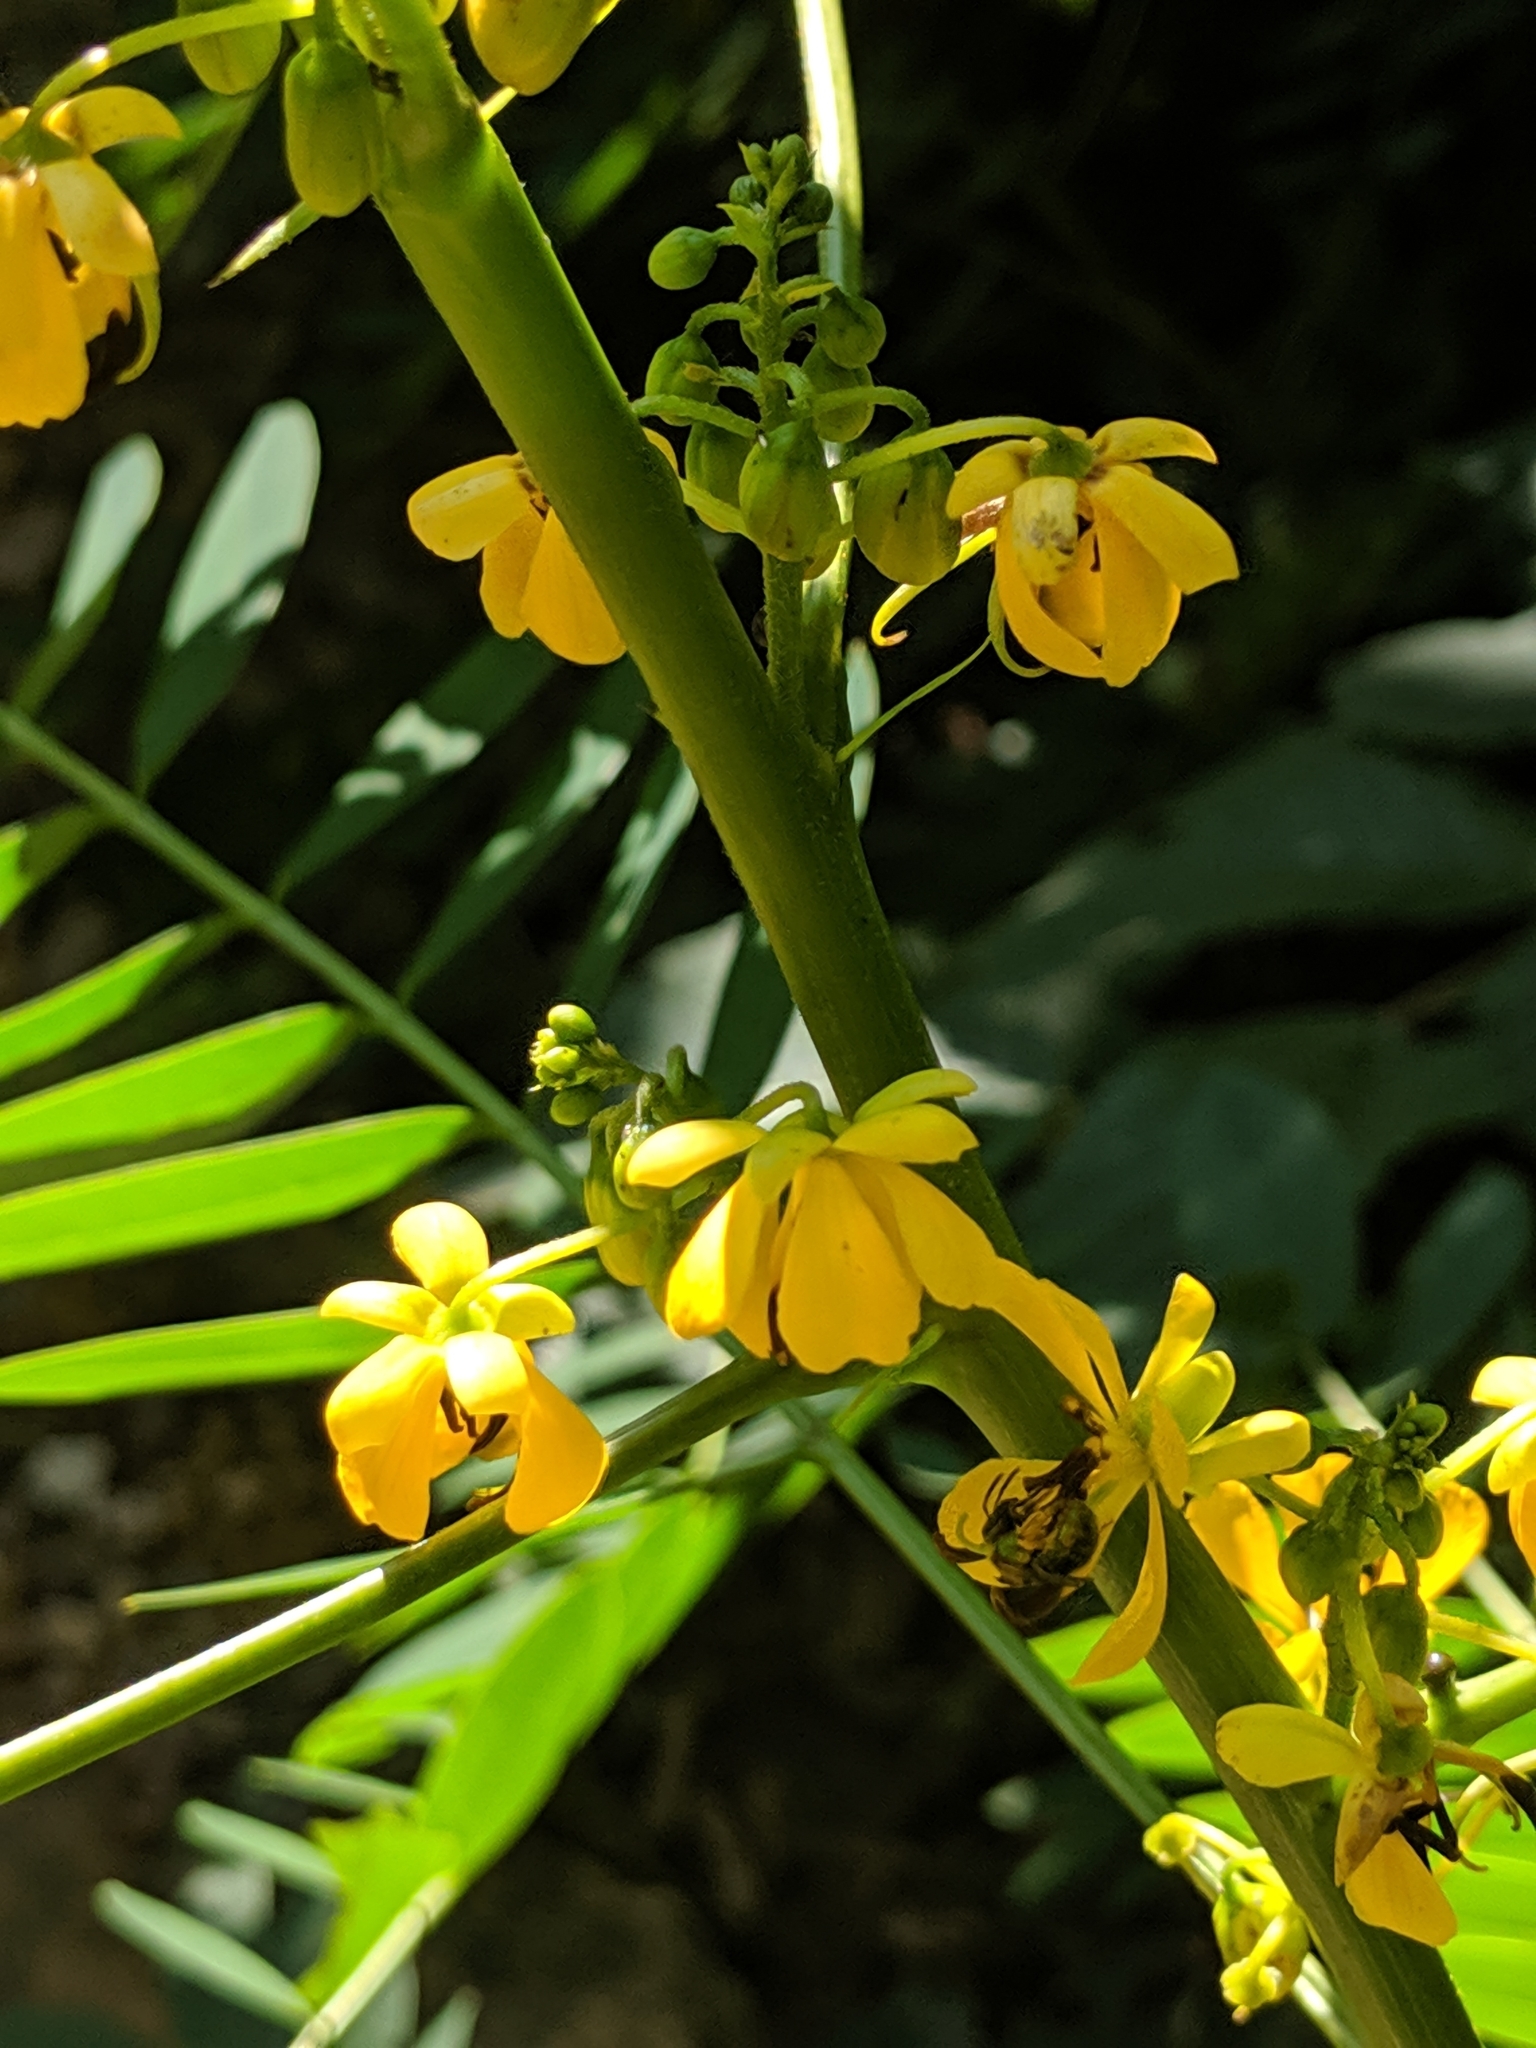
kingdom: Plantae
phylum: Tracheophyta
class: Magnoliopsida
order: Fabales
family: Fabaceae
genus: Senna
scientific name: Senna marilandica
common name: American senna
